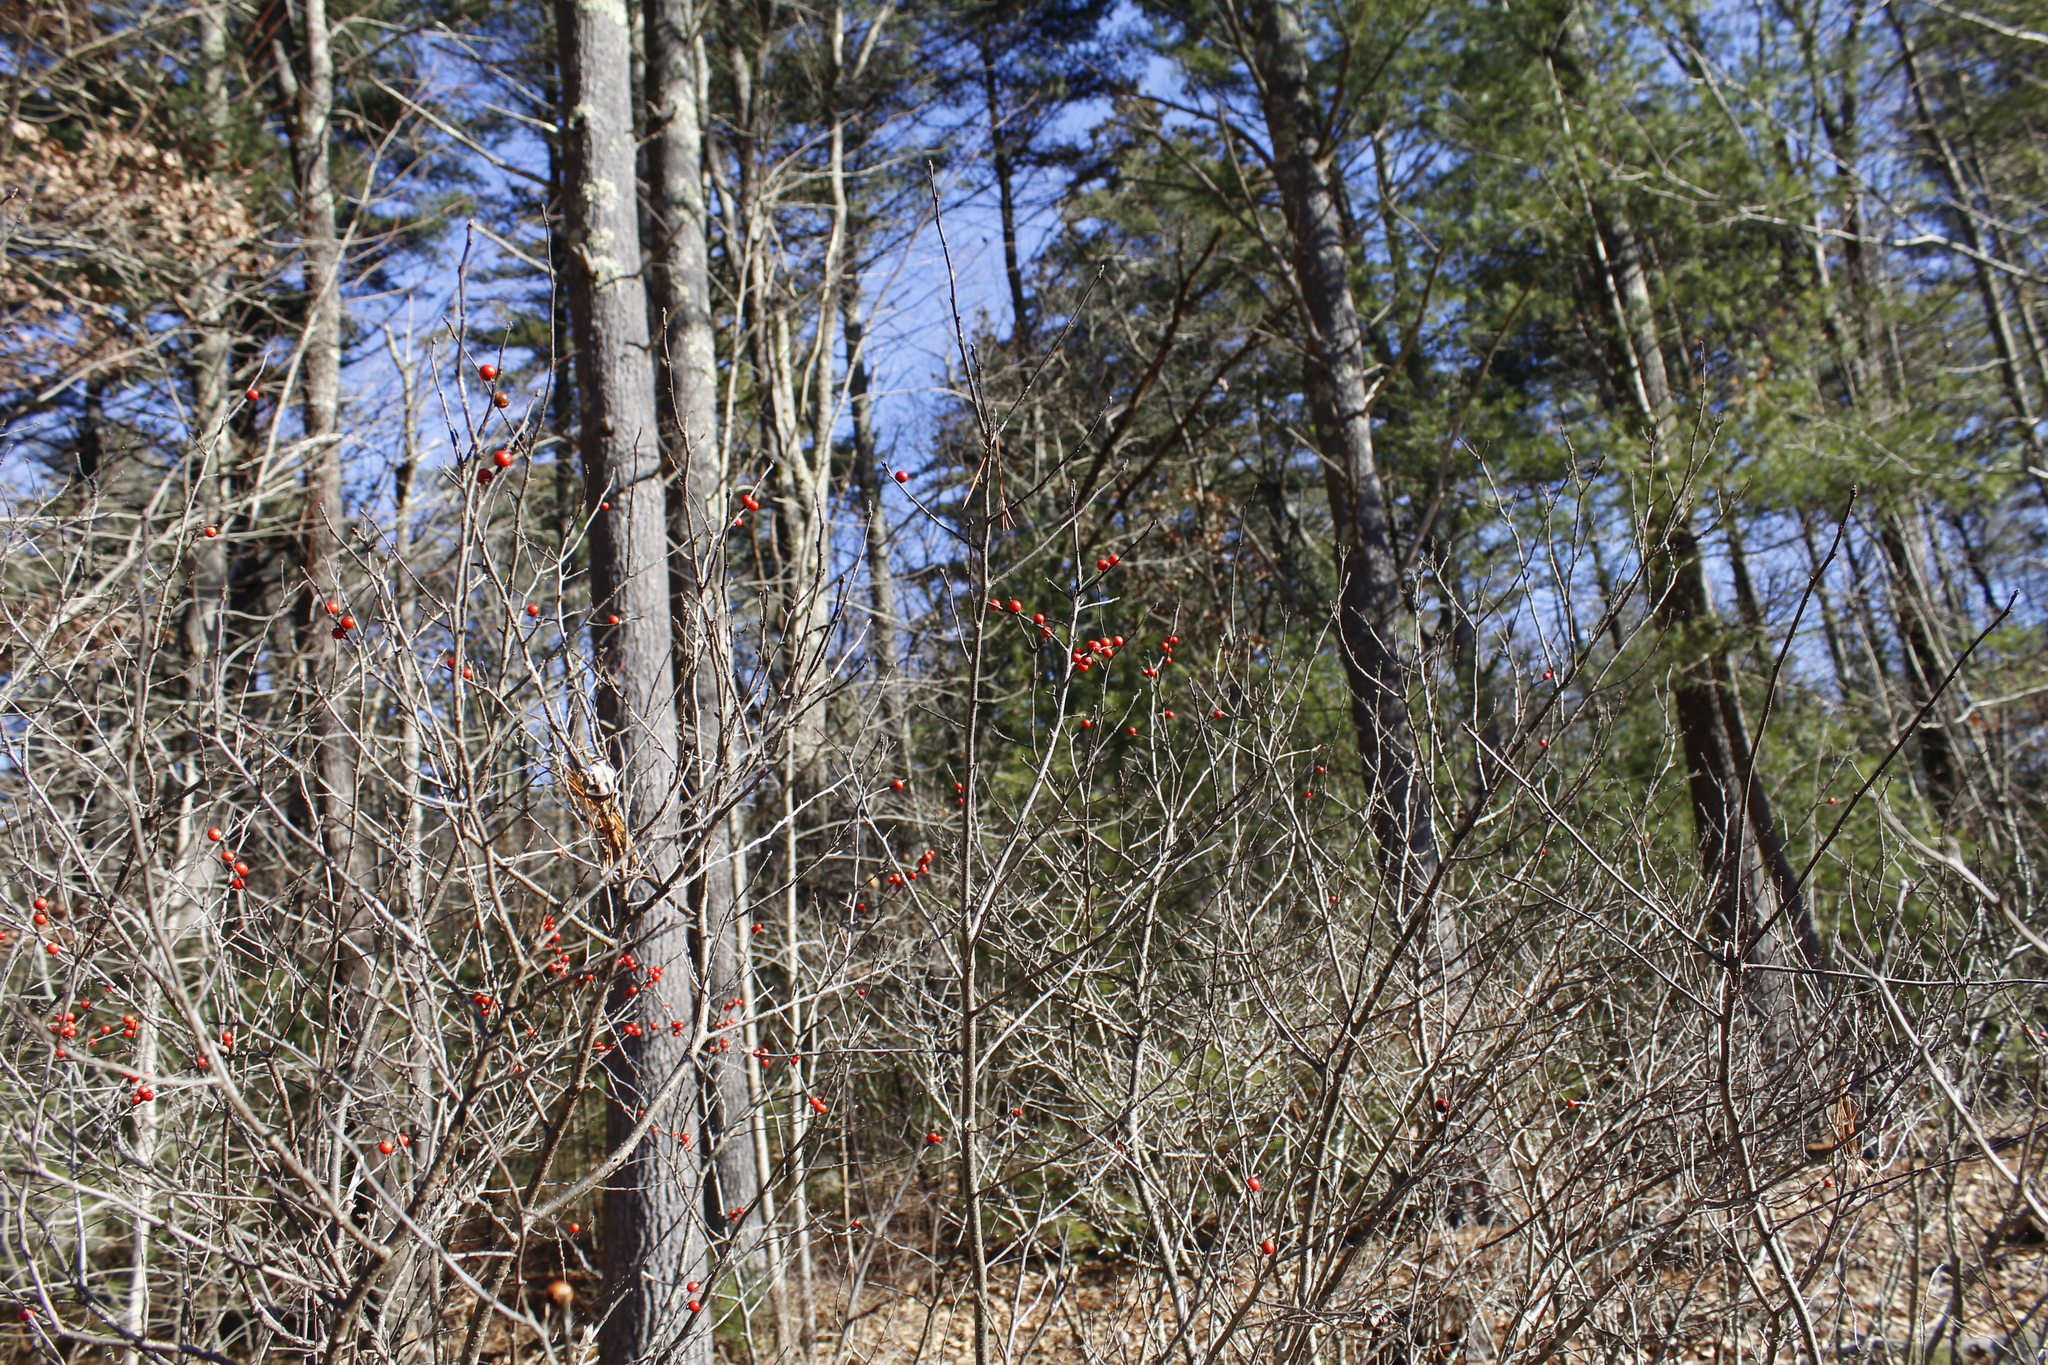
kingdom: Plantae
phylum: Tracheophyta
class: Magnoliopsida
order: Aquifoliales
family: Aquifoliaceae
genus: Ilex
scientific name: Ilex verticillata
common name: Virginia winterberry
